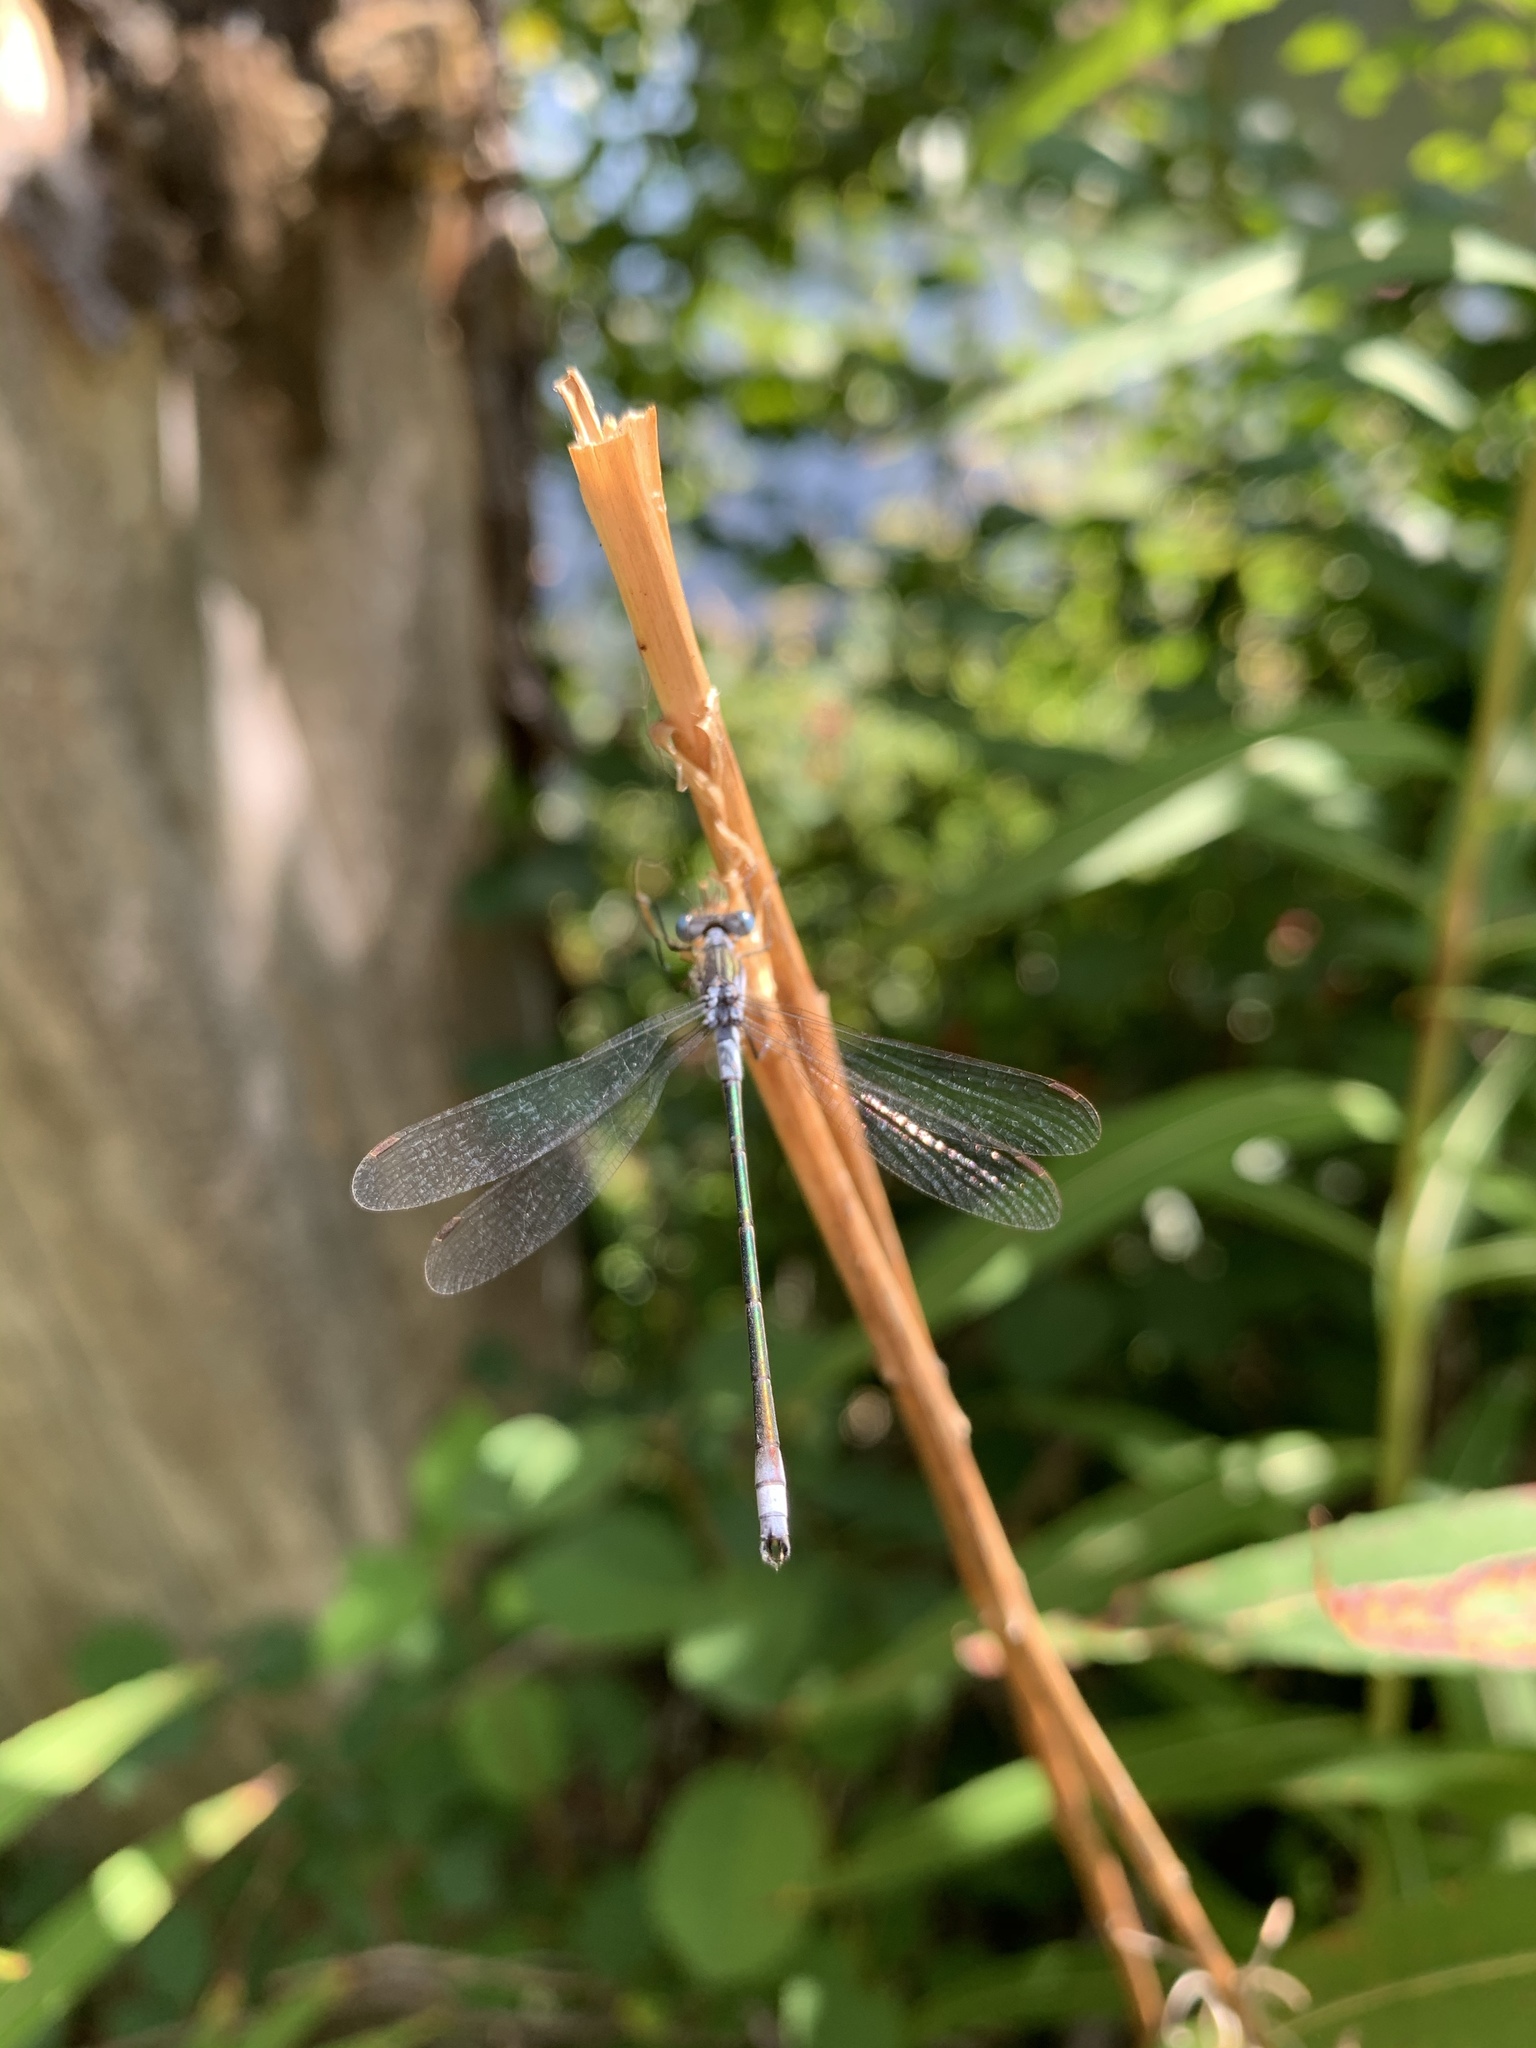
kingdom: Animalia
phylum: Arthropoda
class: Insecta
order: Odonata
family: Lestidae
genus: Lestes
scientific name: Lestes dryas
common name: Scarce emerald damselfly
